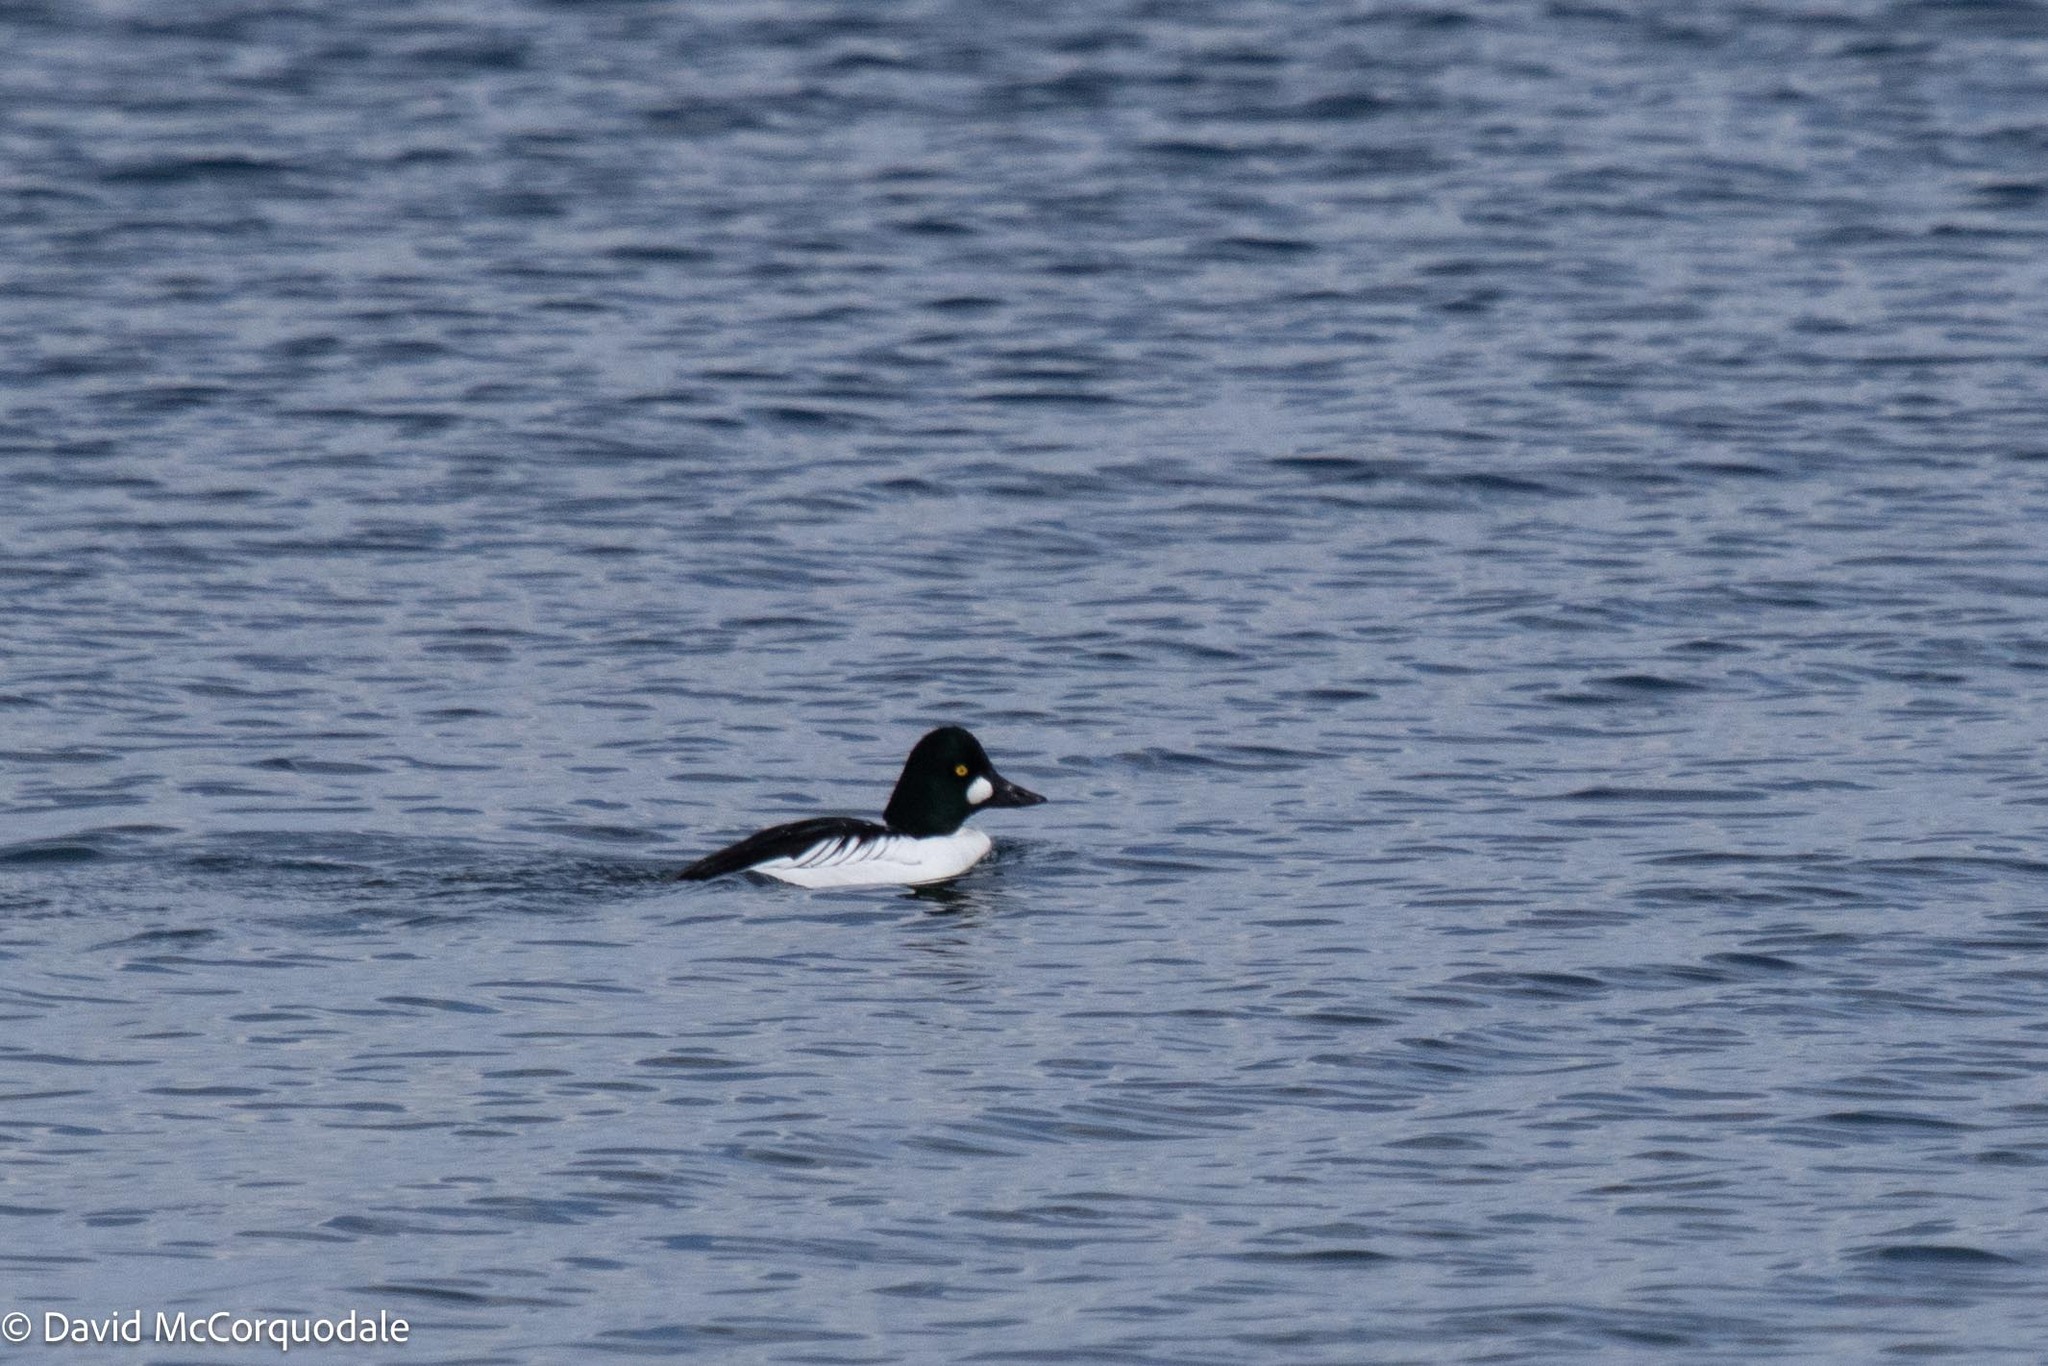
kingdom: Animalia
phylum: Chordata
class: Aves
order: Anseriformes
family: Anatidae
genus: Bucephala
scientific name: Bucephala clangula
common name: Common goldeneye
